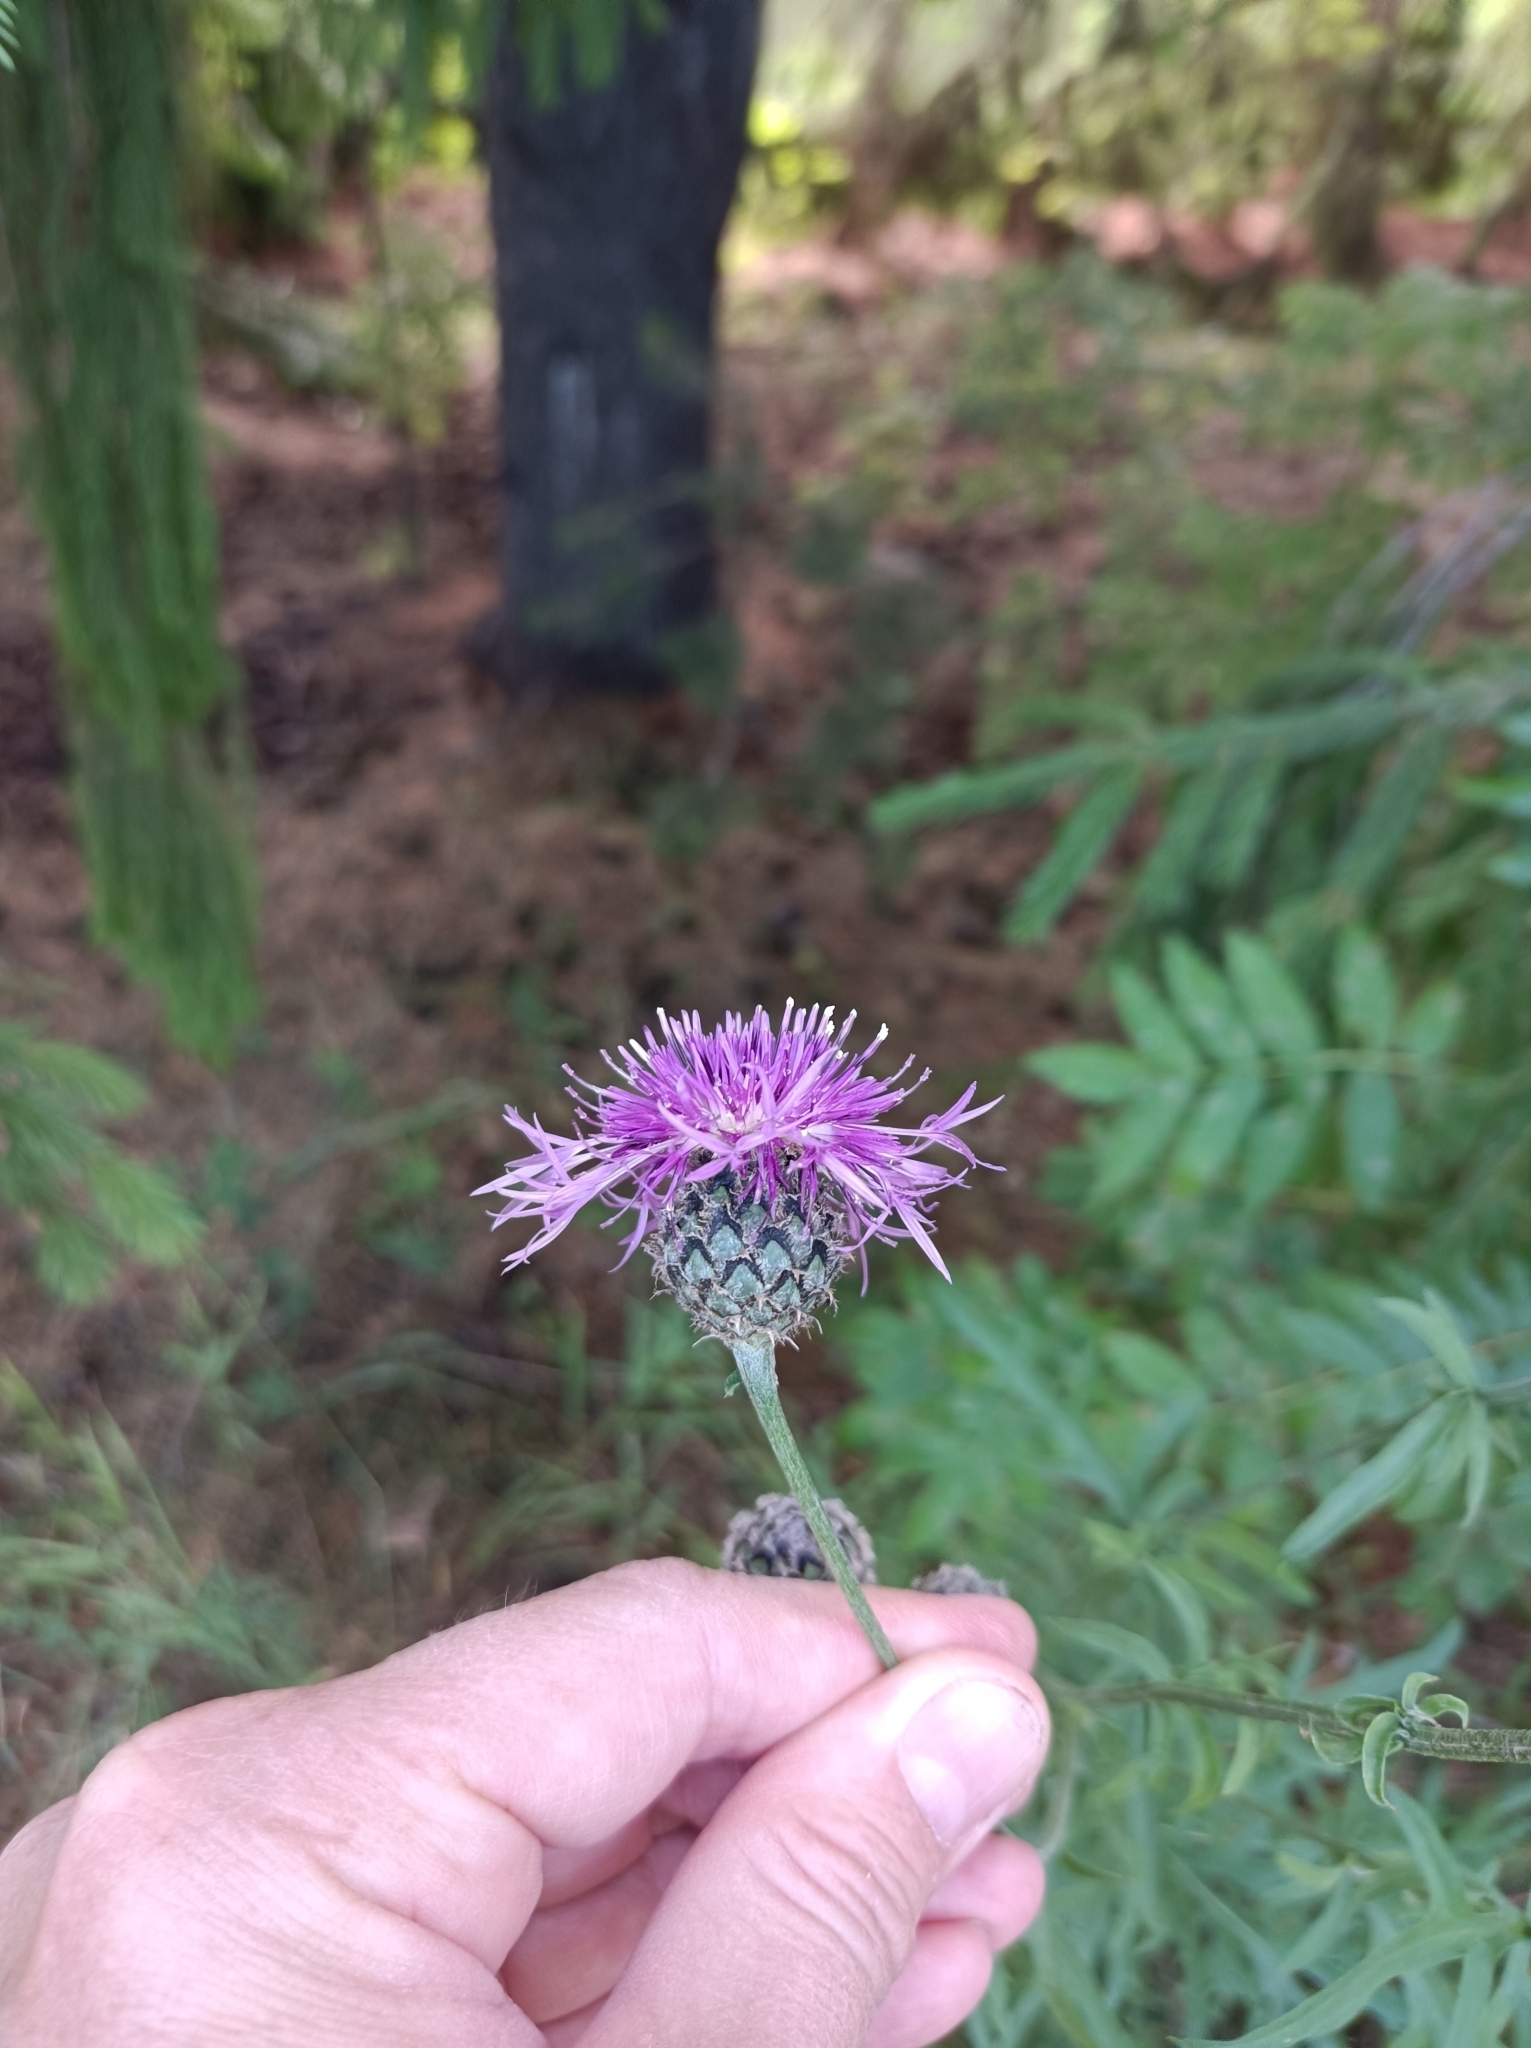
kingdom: Plantae
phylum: Tracheophyta
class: Magnoliopsida
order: Asterales
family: Asteraceae
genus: Centaurea
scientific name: Centaurea scabiosa
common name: Greater knapweed
